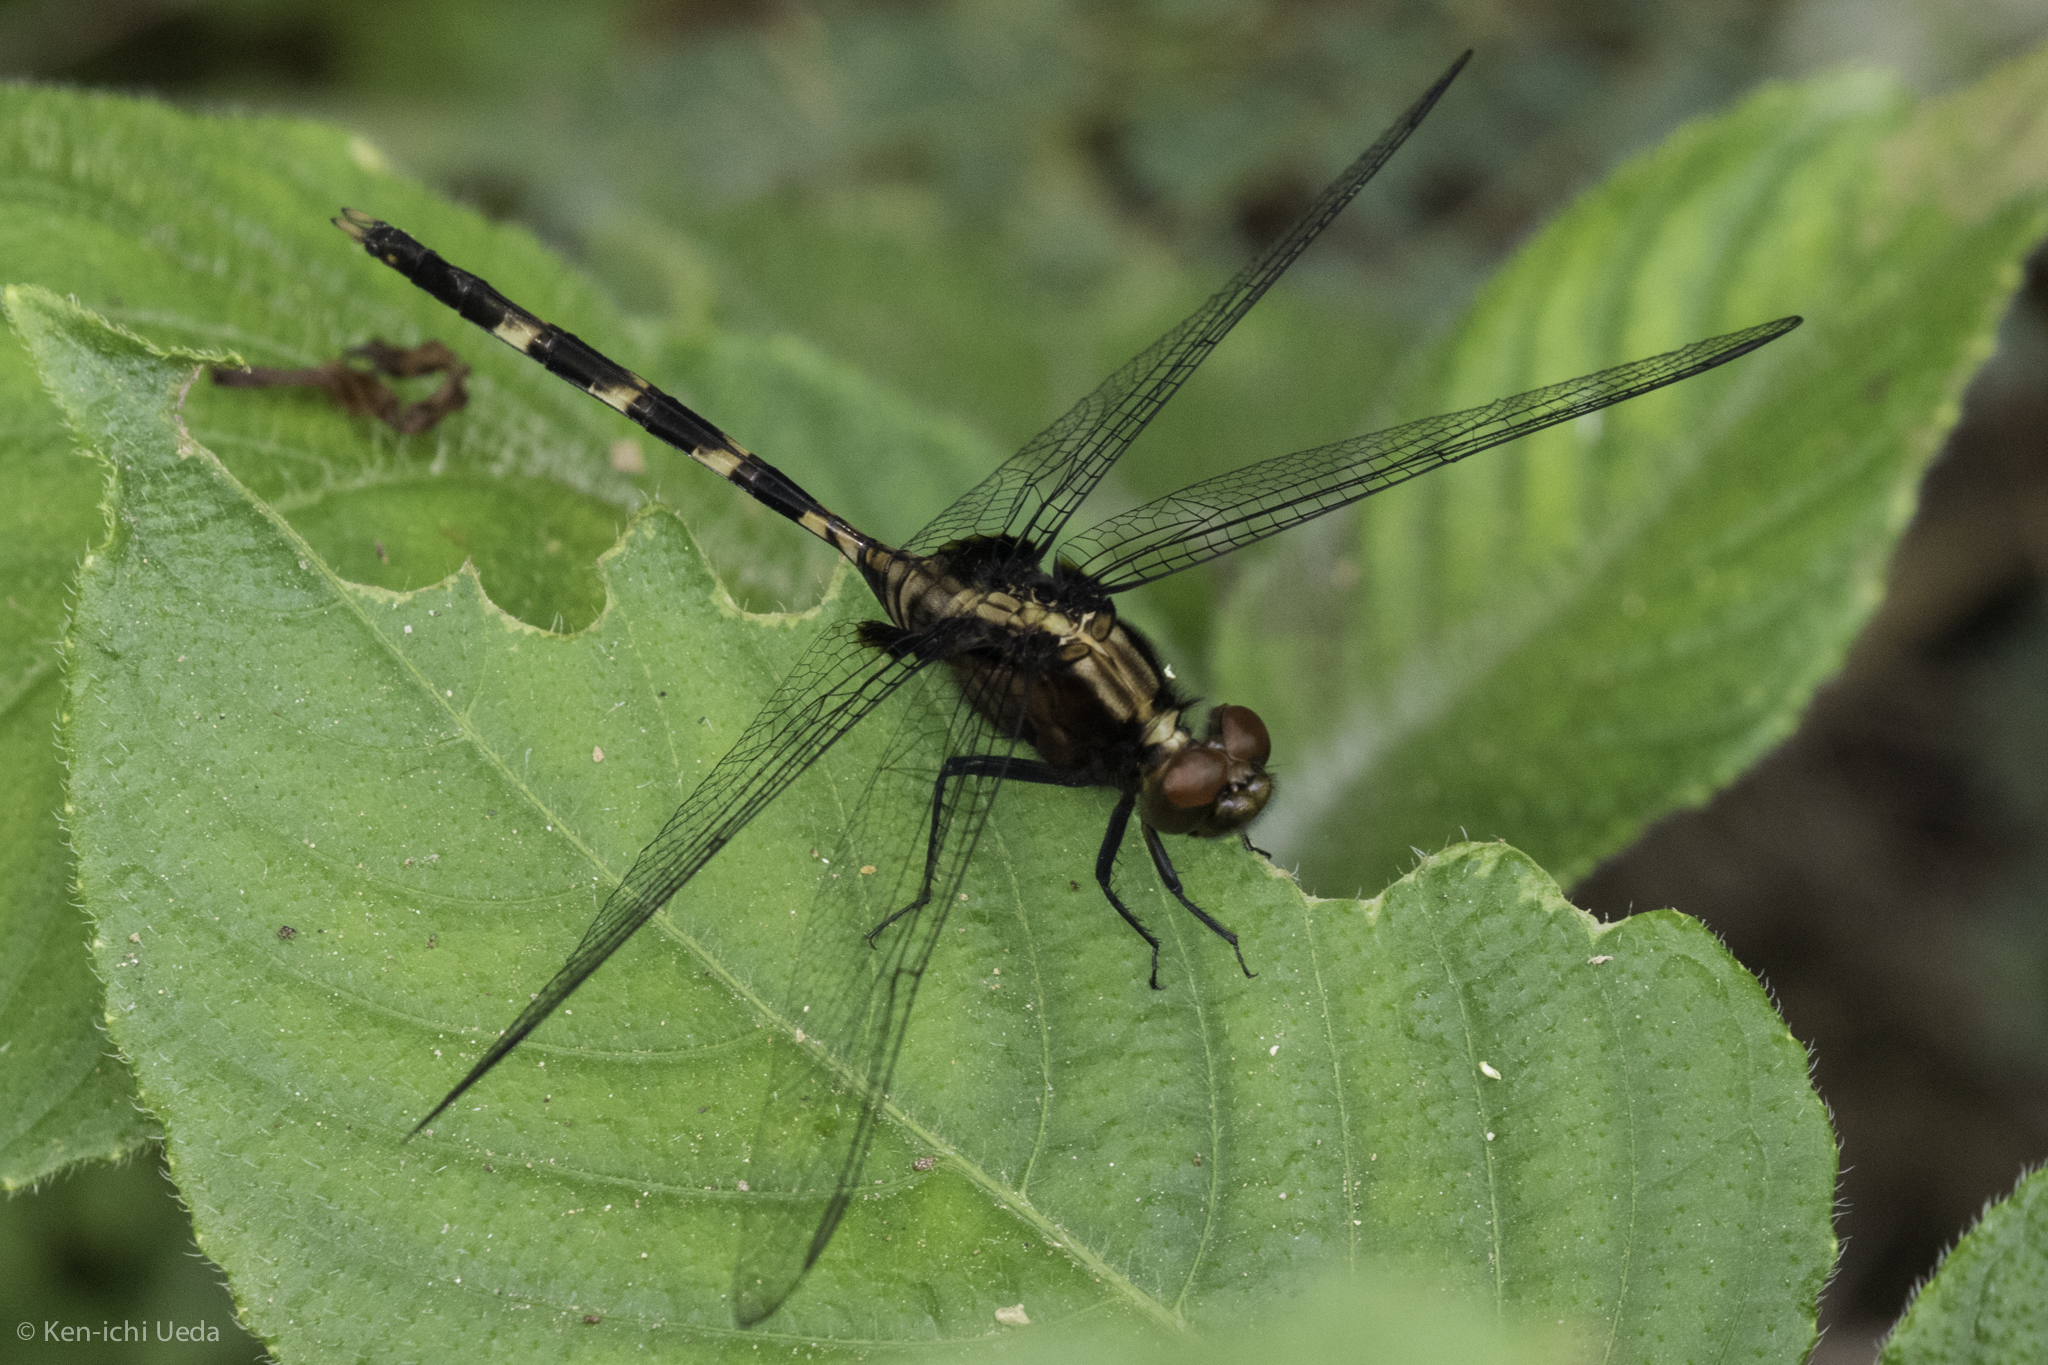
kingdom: Animalia
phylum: Arthropoda
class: Insecta
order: Odonata
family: Libellulidae
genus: Erythemis
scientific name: Erythemis plebeja
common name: Pin-tailed pondhawk
